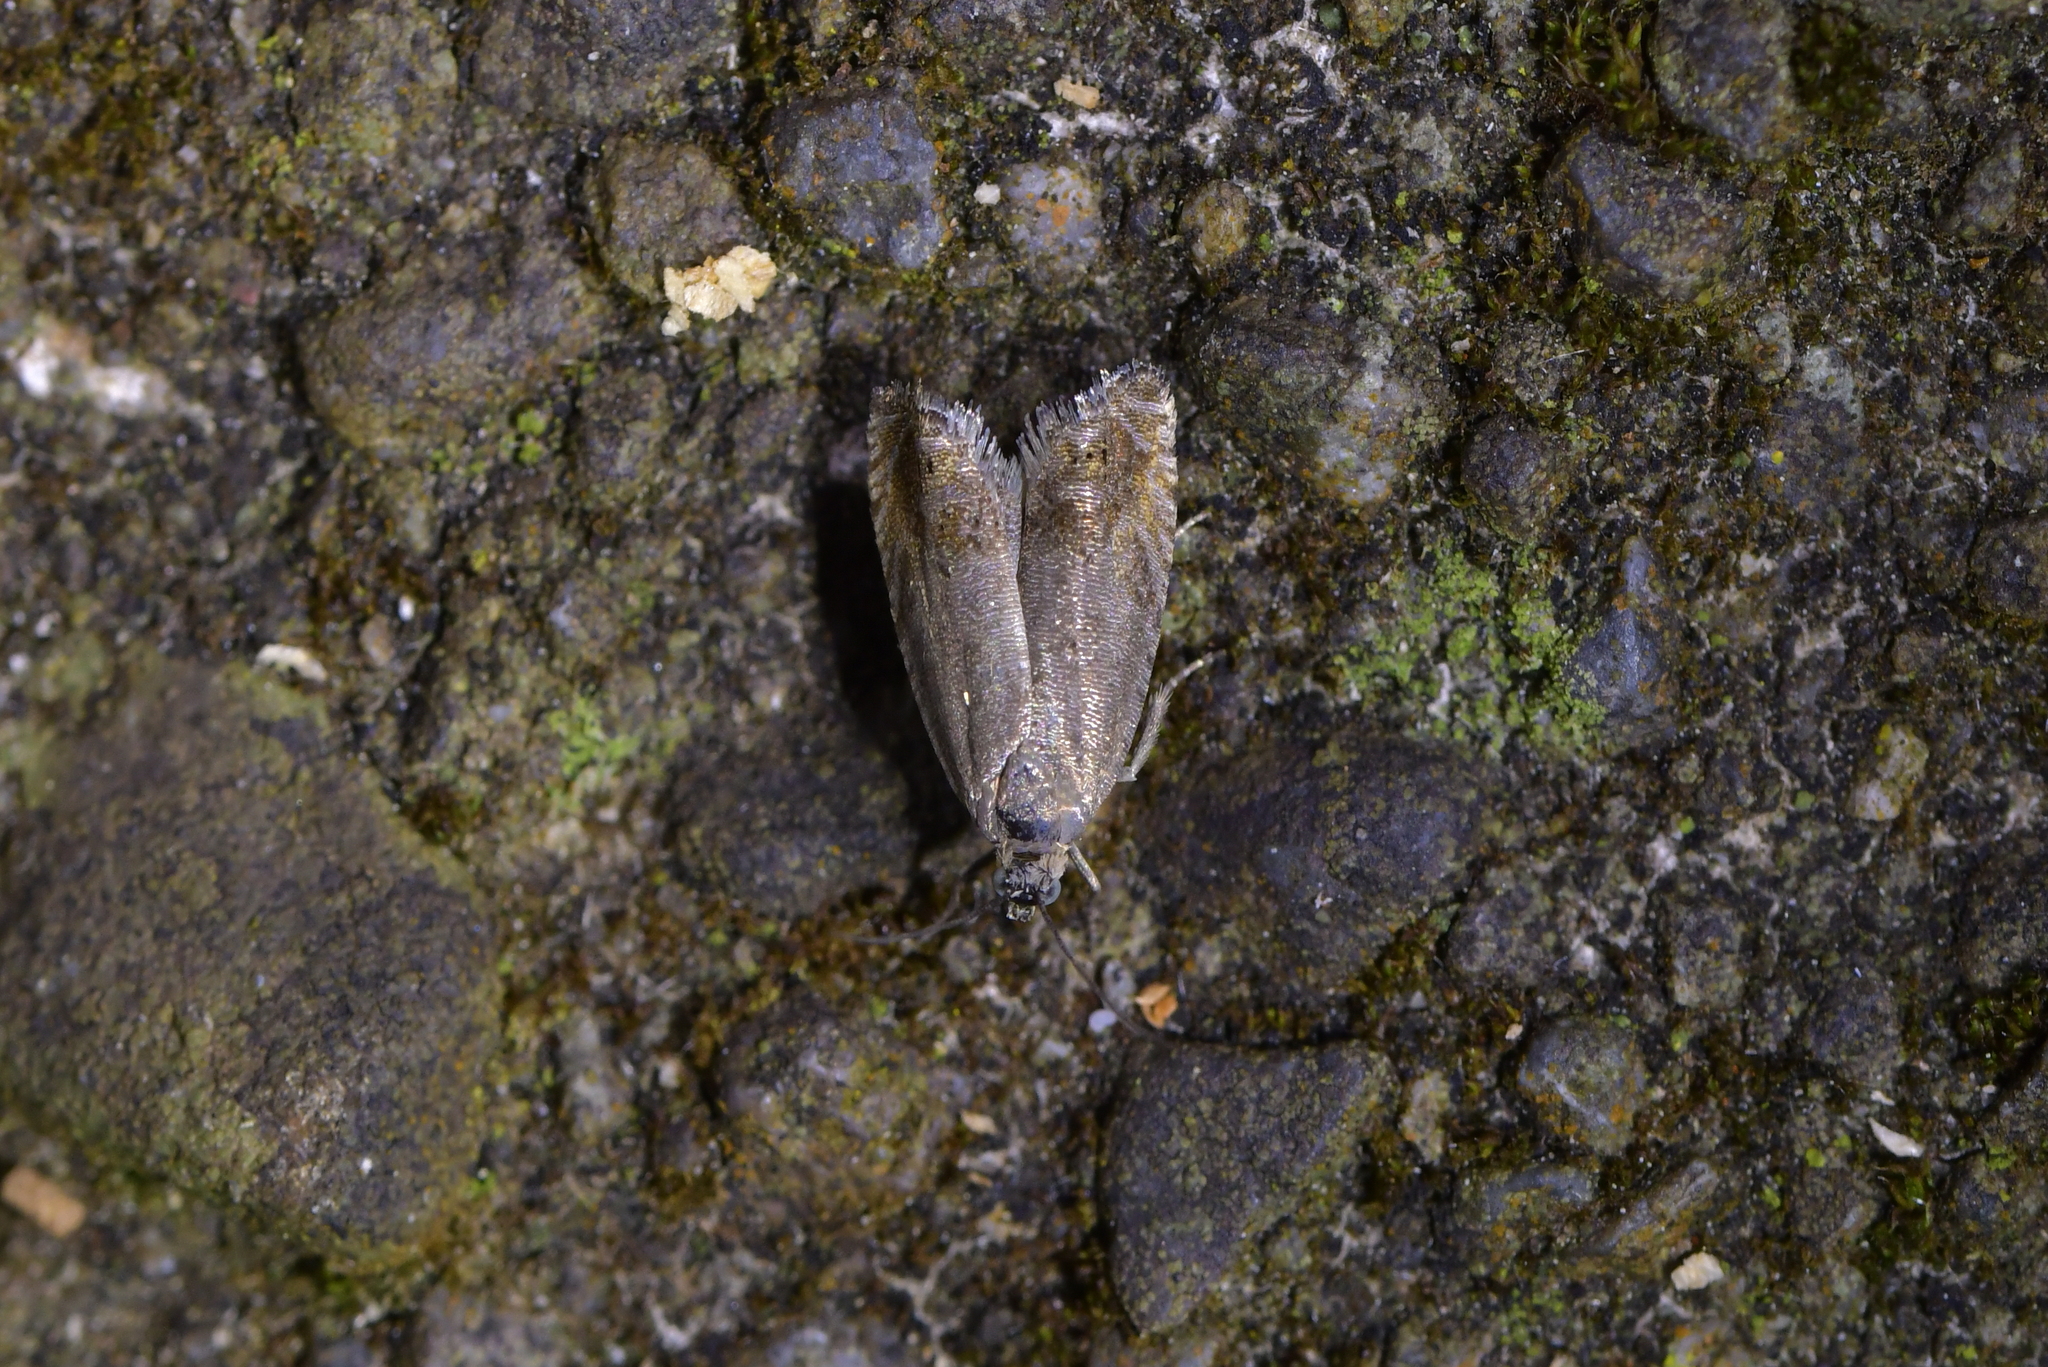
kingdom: Animalia
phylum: Arthropoda
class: Insecta
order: Lepidoptera
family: Tortricidae
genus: Cydia
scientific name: Cydia succedana
